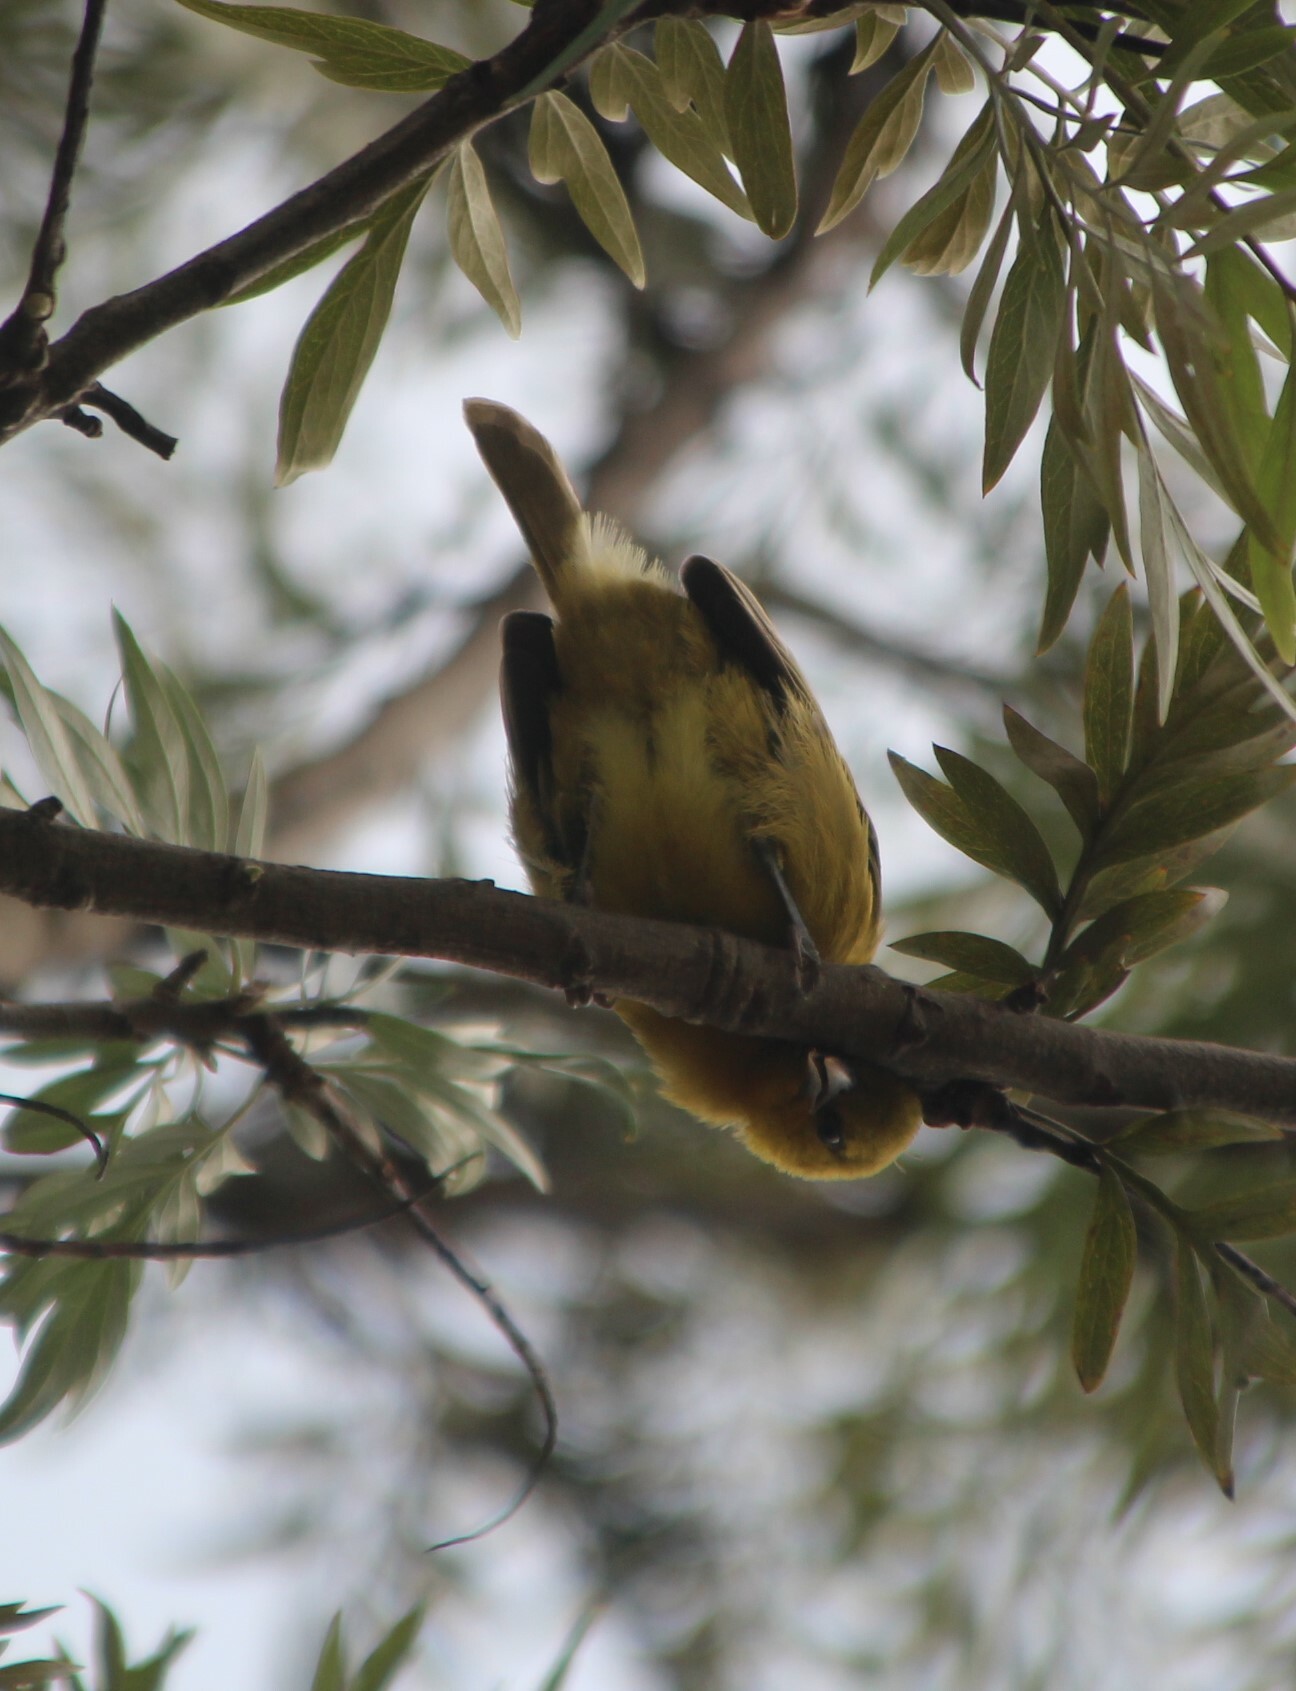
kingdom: Animalia
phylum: Chordata
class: Aves
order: Passeriformes
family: Ploceidae
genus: Ploceus
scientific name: Ploceus ocularis
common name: Spectacled weaver
